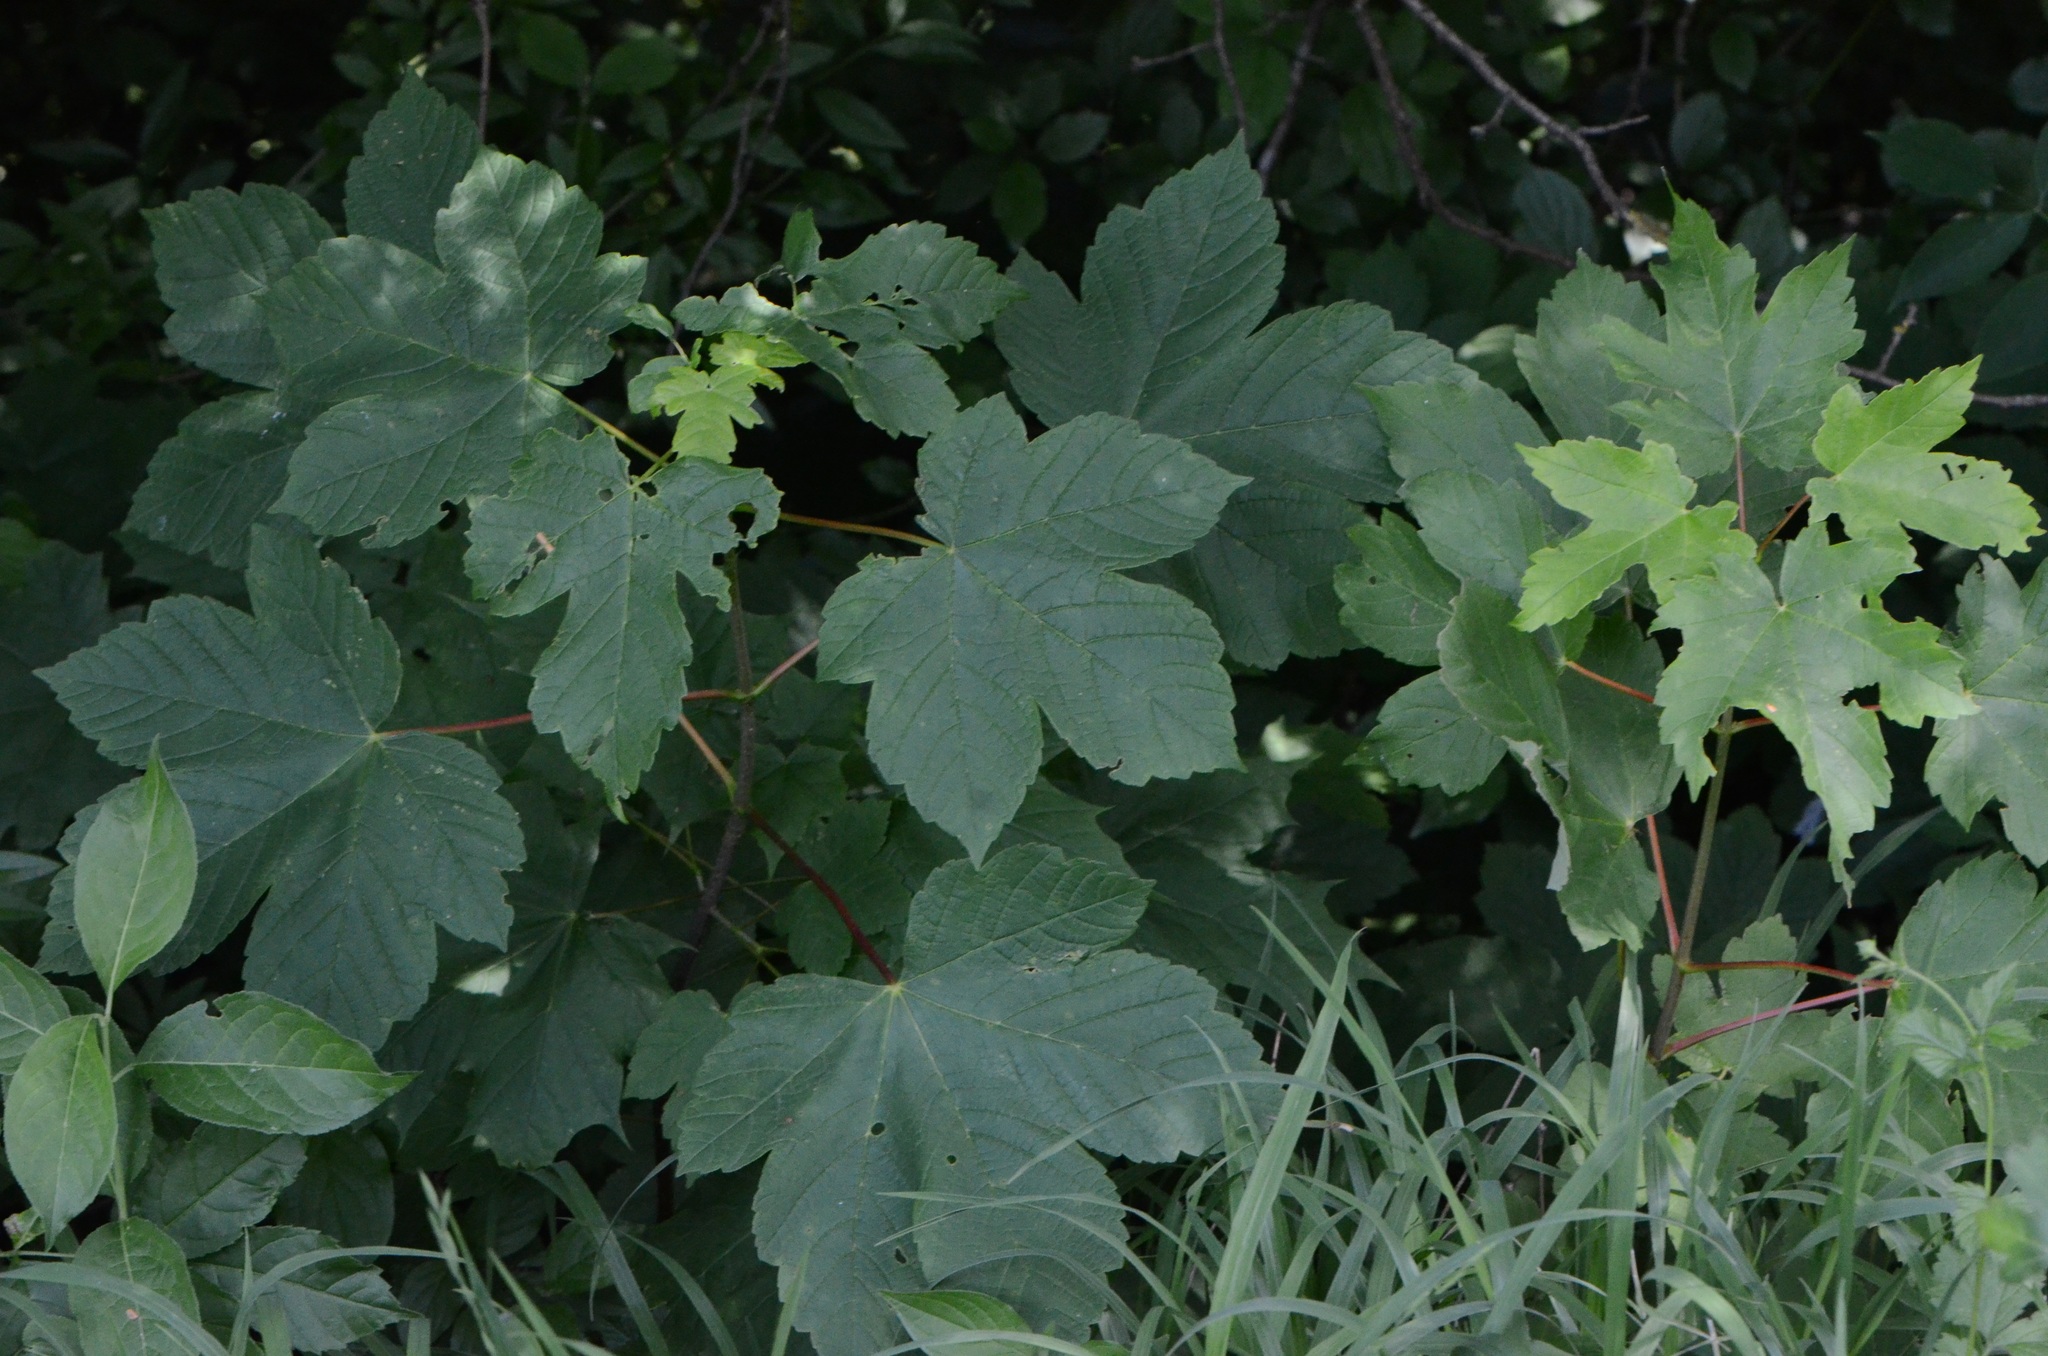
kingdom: Plantae
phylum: Tracheophyta
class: Magnoliopsida
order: Sapindales
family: Sapindaceae
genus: Acer
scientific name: Acer pseudoplatanus
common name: Sycamore
